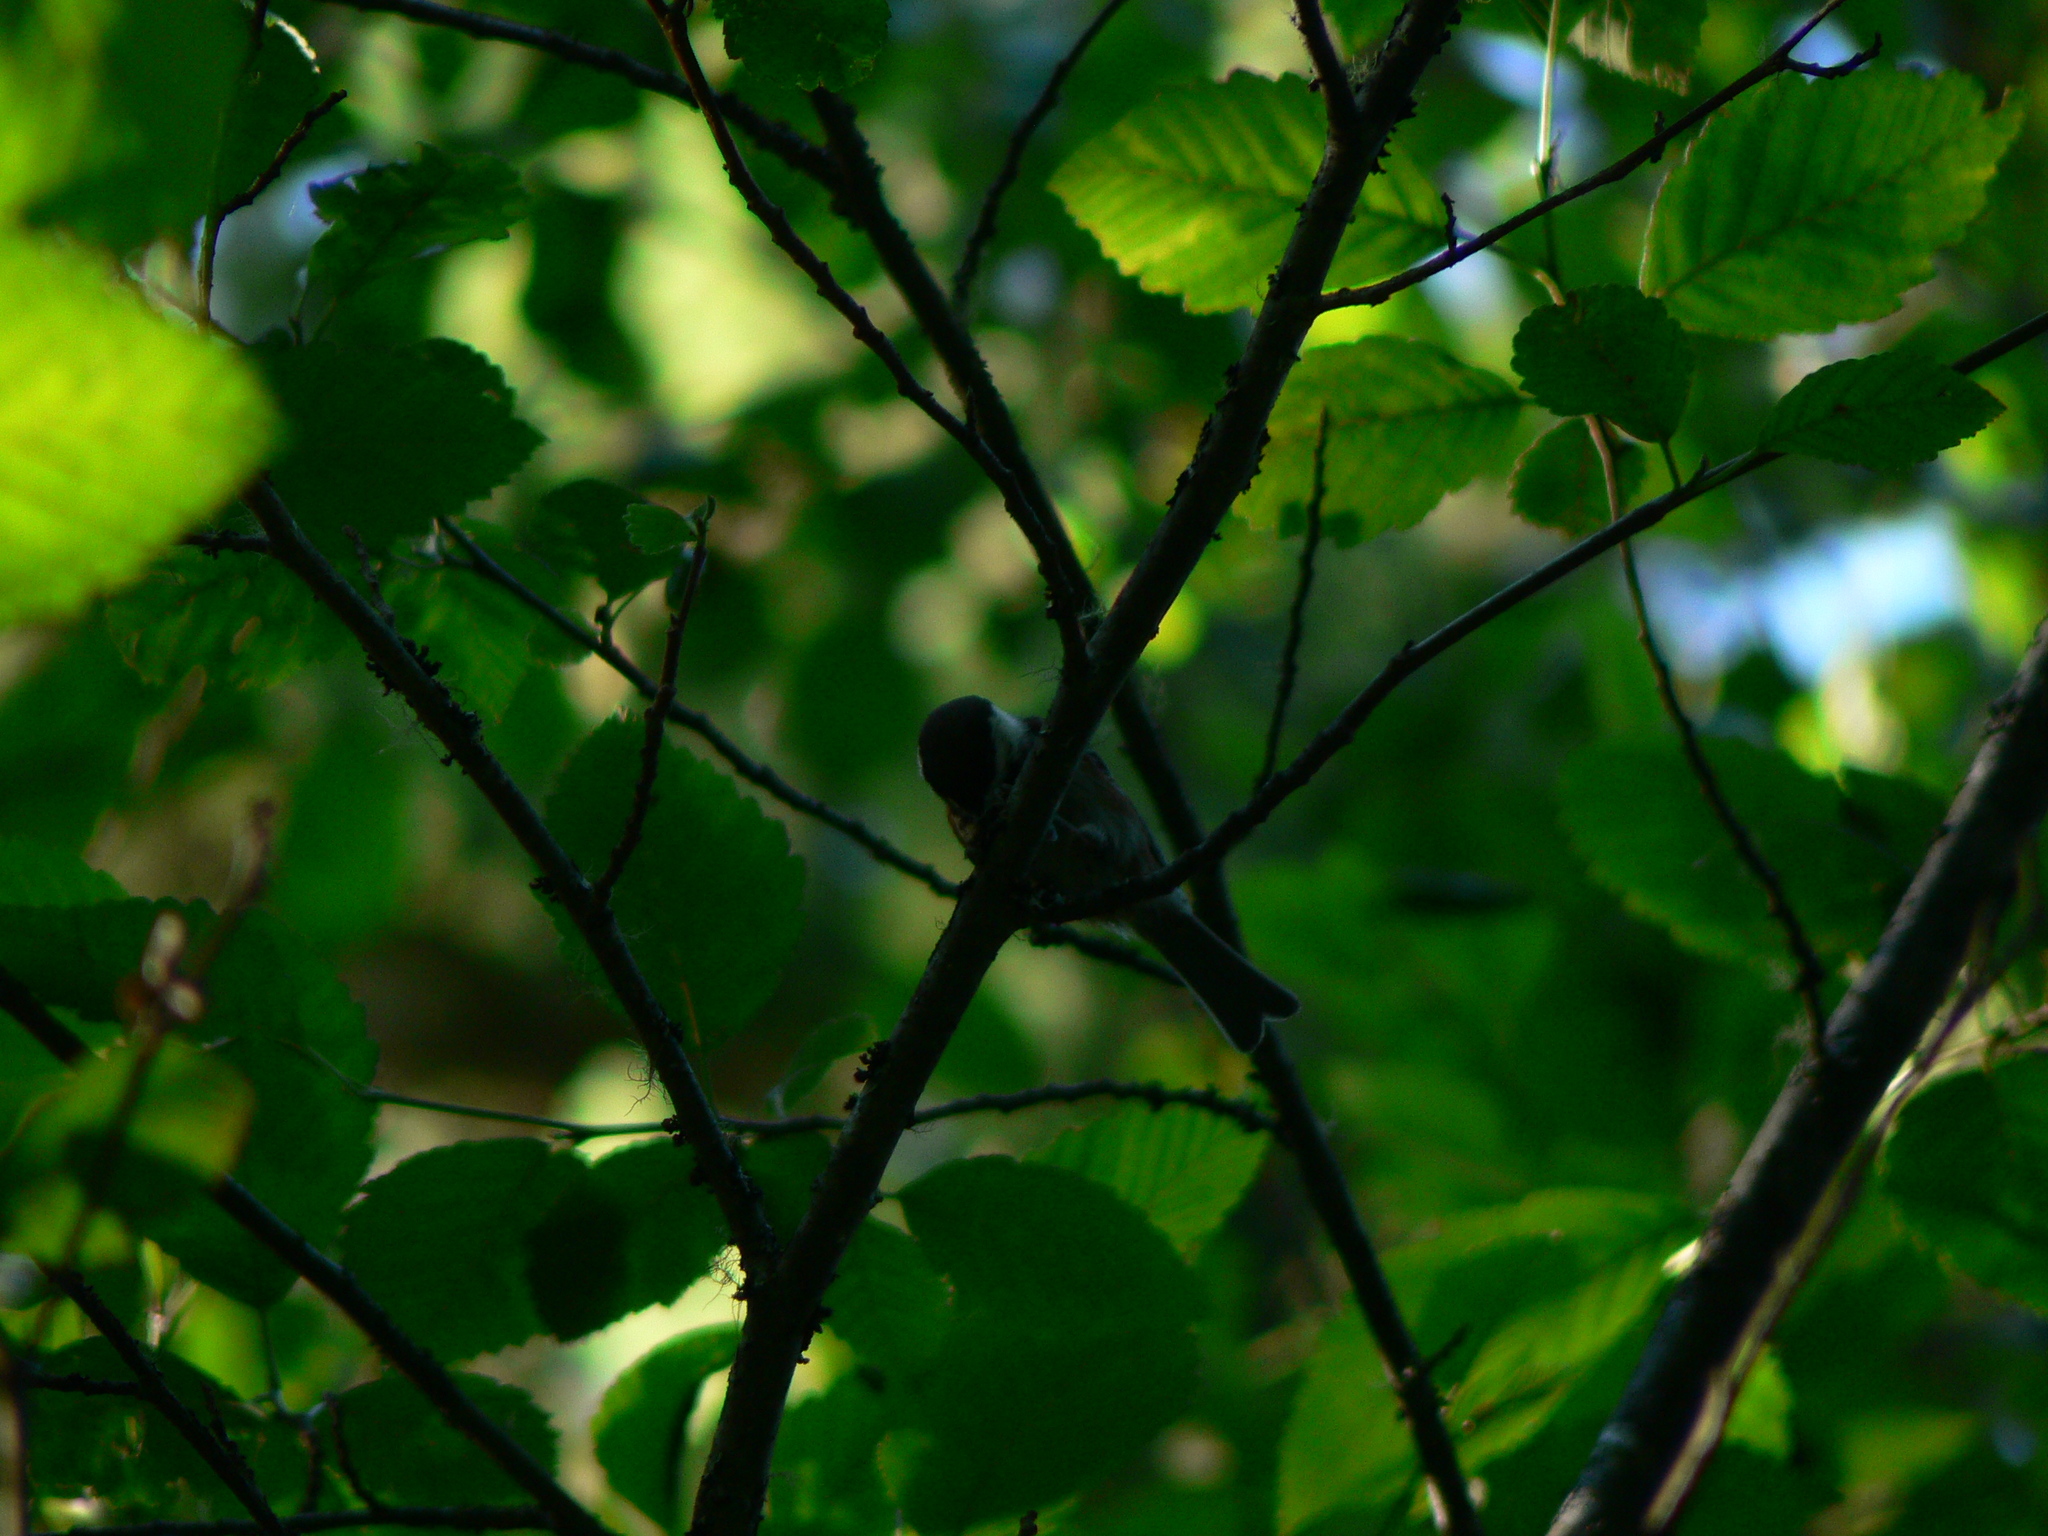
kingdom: Animalia
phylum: Chordata
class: Aves
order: Passeriformes
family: Paridae
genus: Poecile
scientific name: Poecile rufescens
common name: Chestnut-backed chickadee
